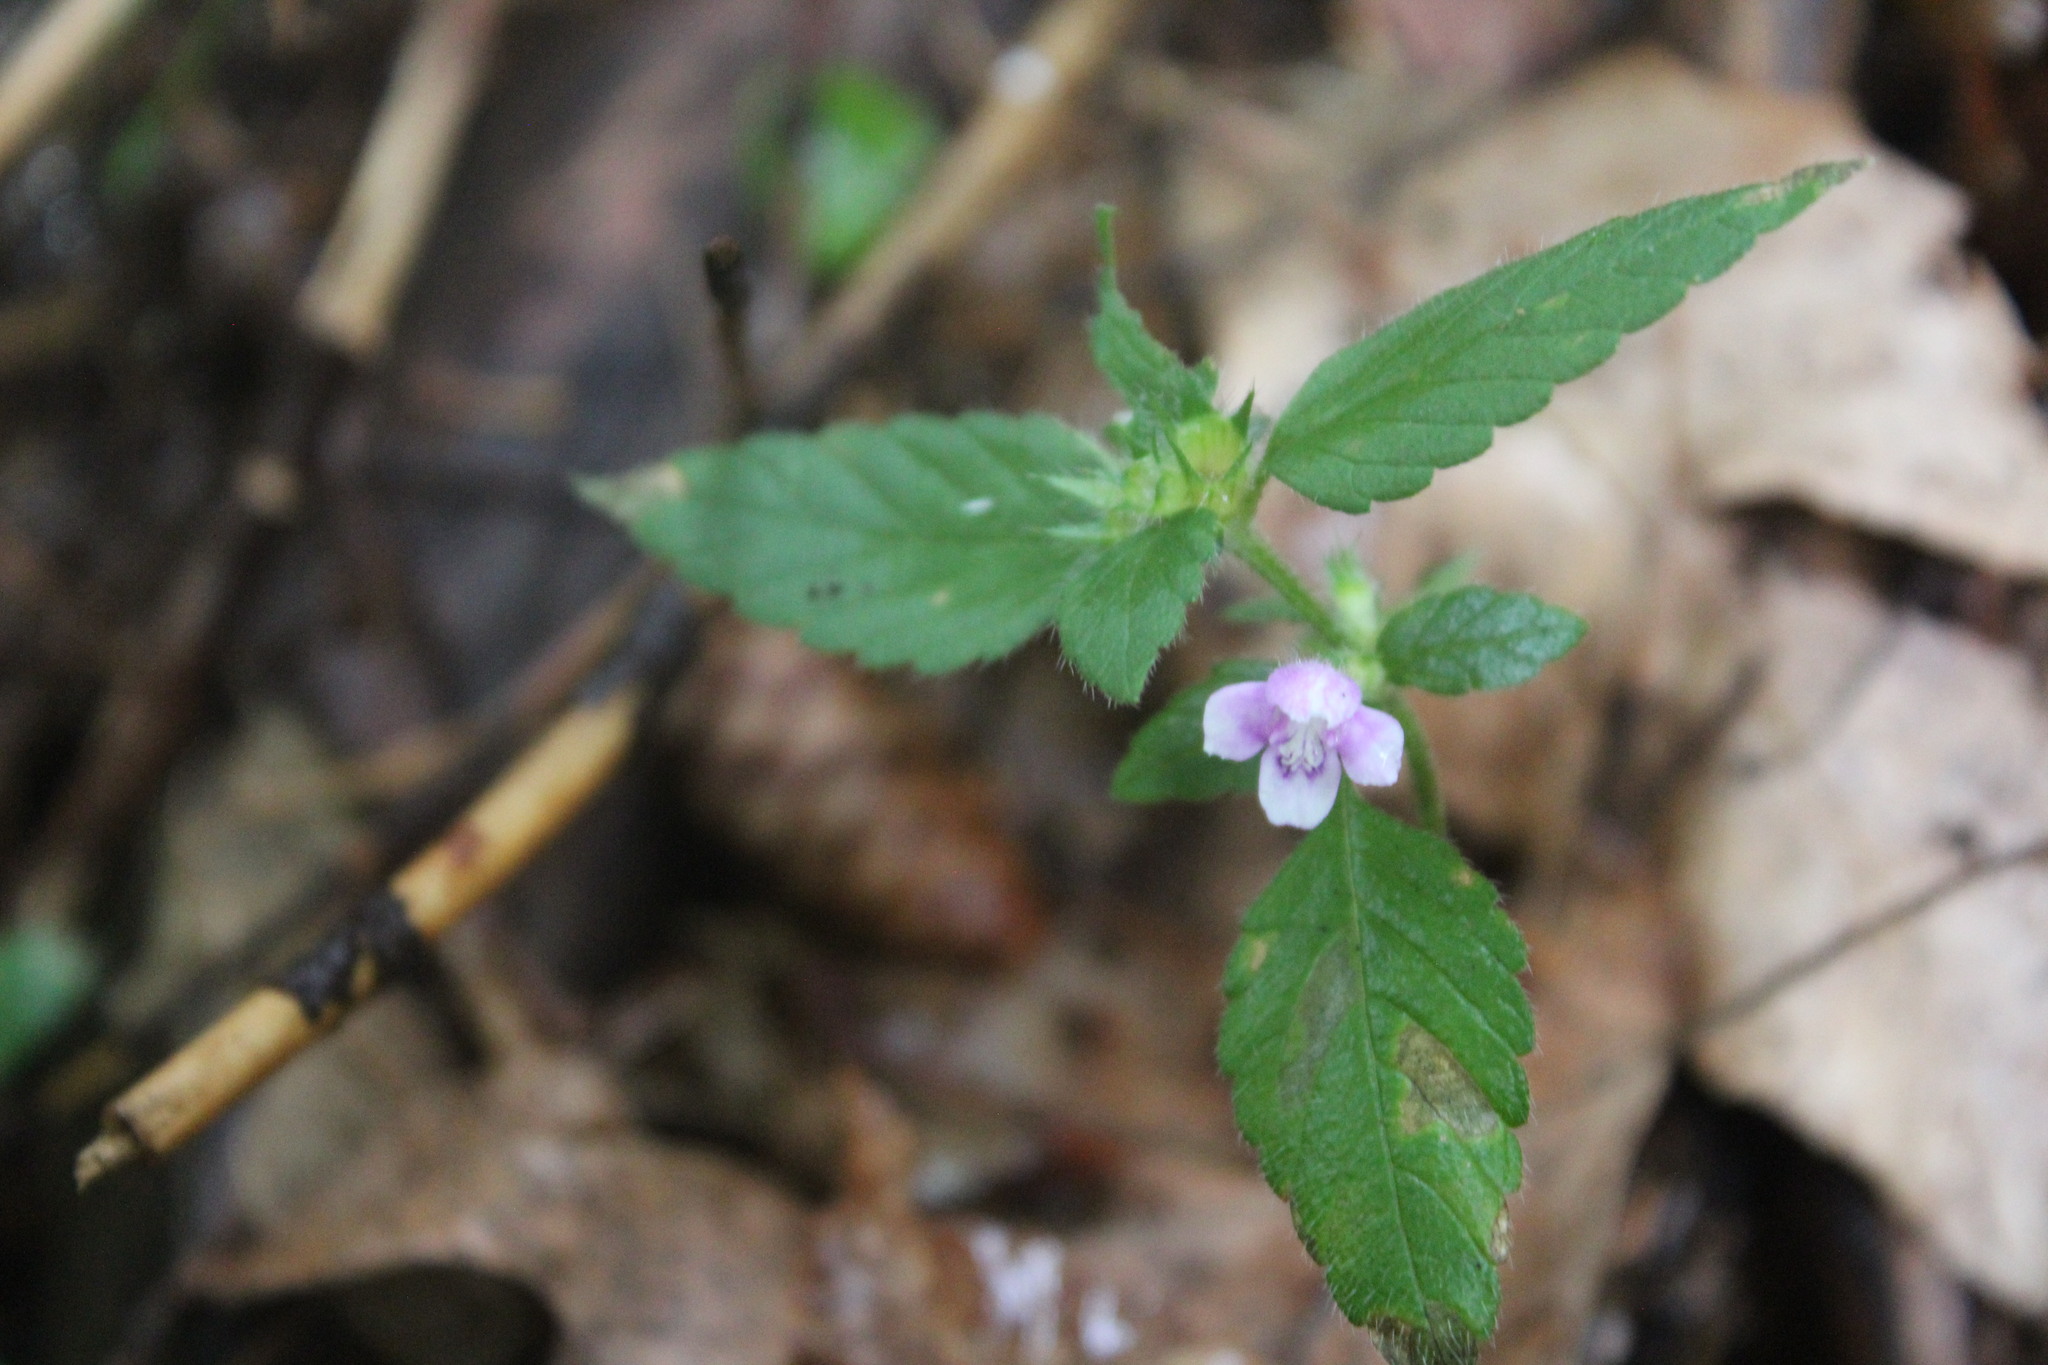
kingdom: Plantae
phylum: Tracheophyta
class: Magnoliopsida
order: Lamiales
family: Lamiaceae
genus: Galeopsis
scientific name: Galeopsis tetrahit
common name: Common hemp-nettle
